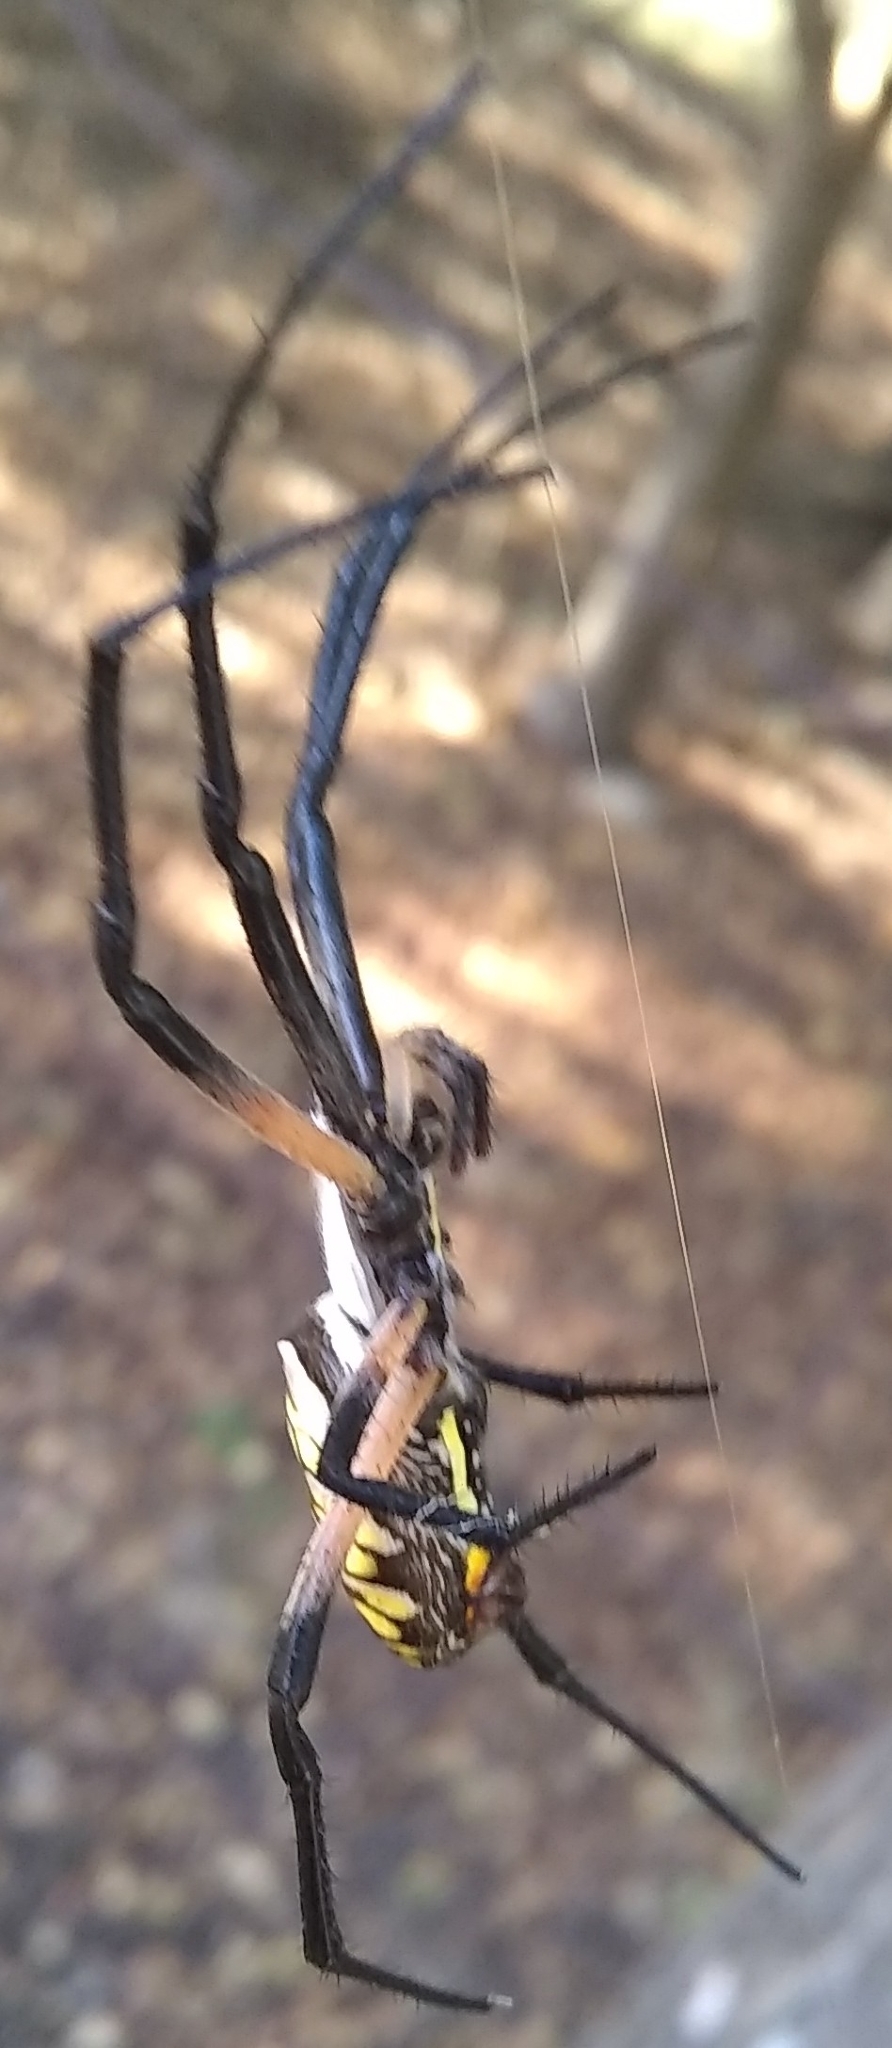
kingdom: Animalia
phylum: Arthropoda
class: Arachnida
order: Araneae
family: Araneidae
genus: Argiope
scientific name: Argiope aurantia
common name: Orb weavers
